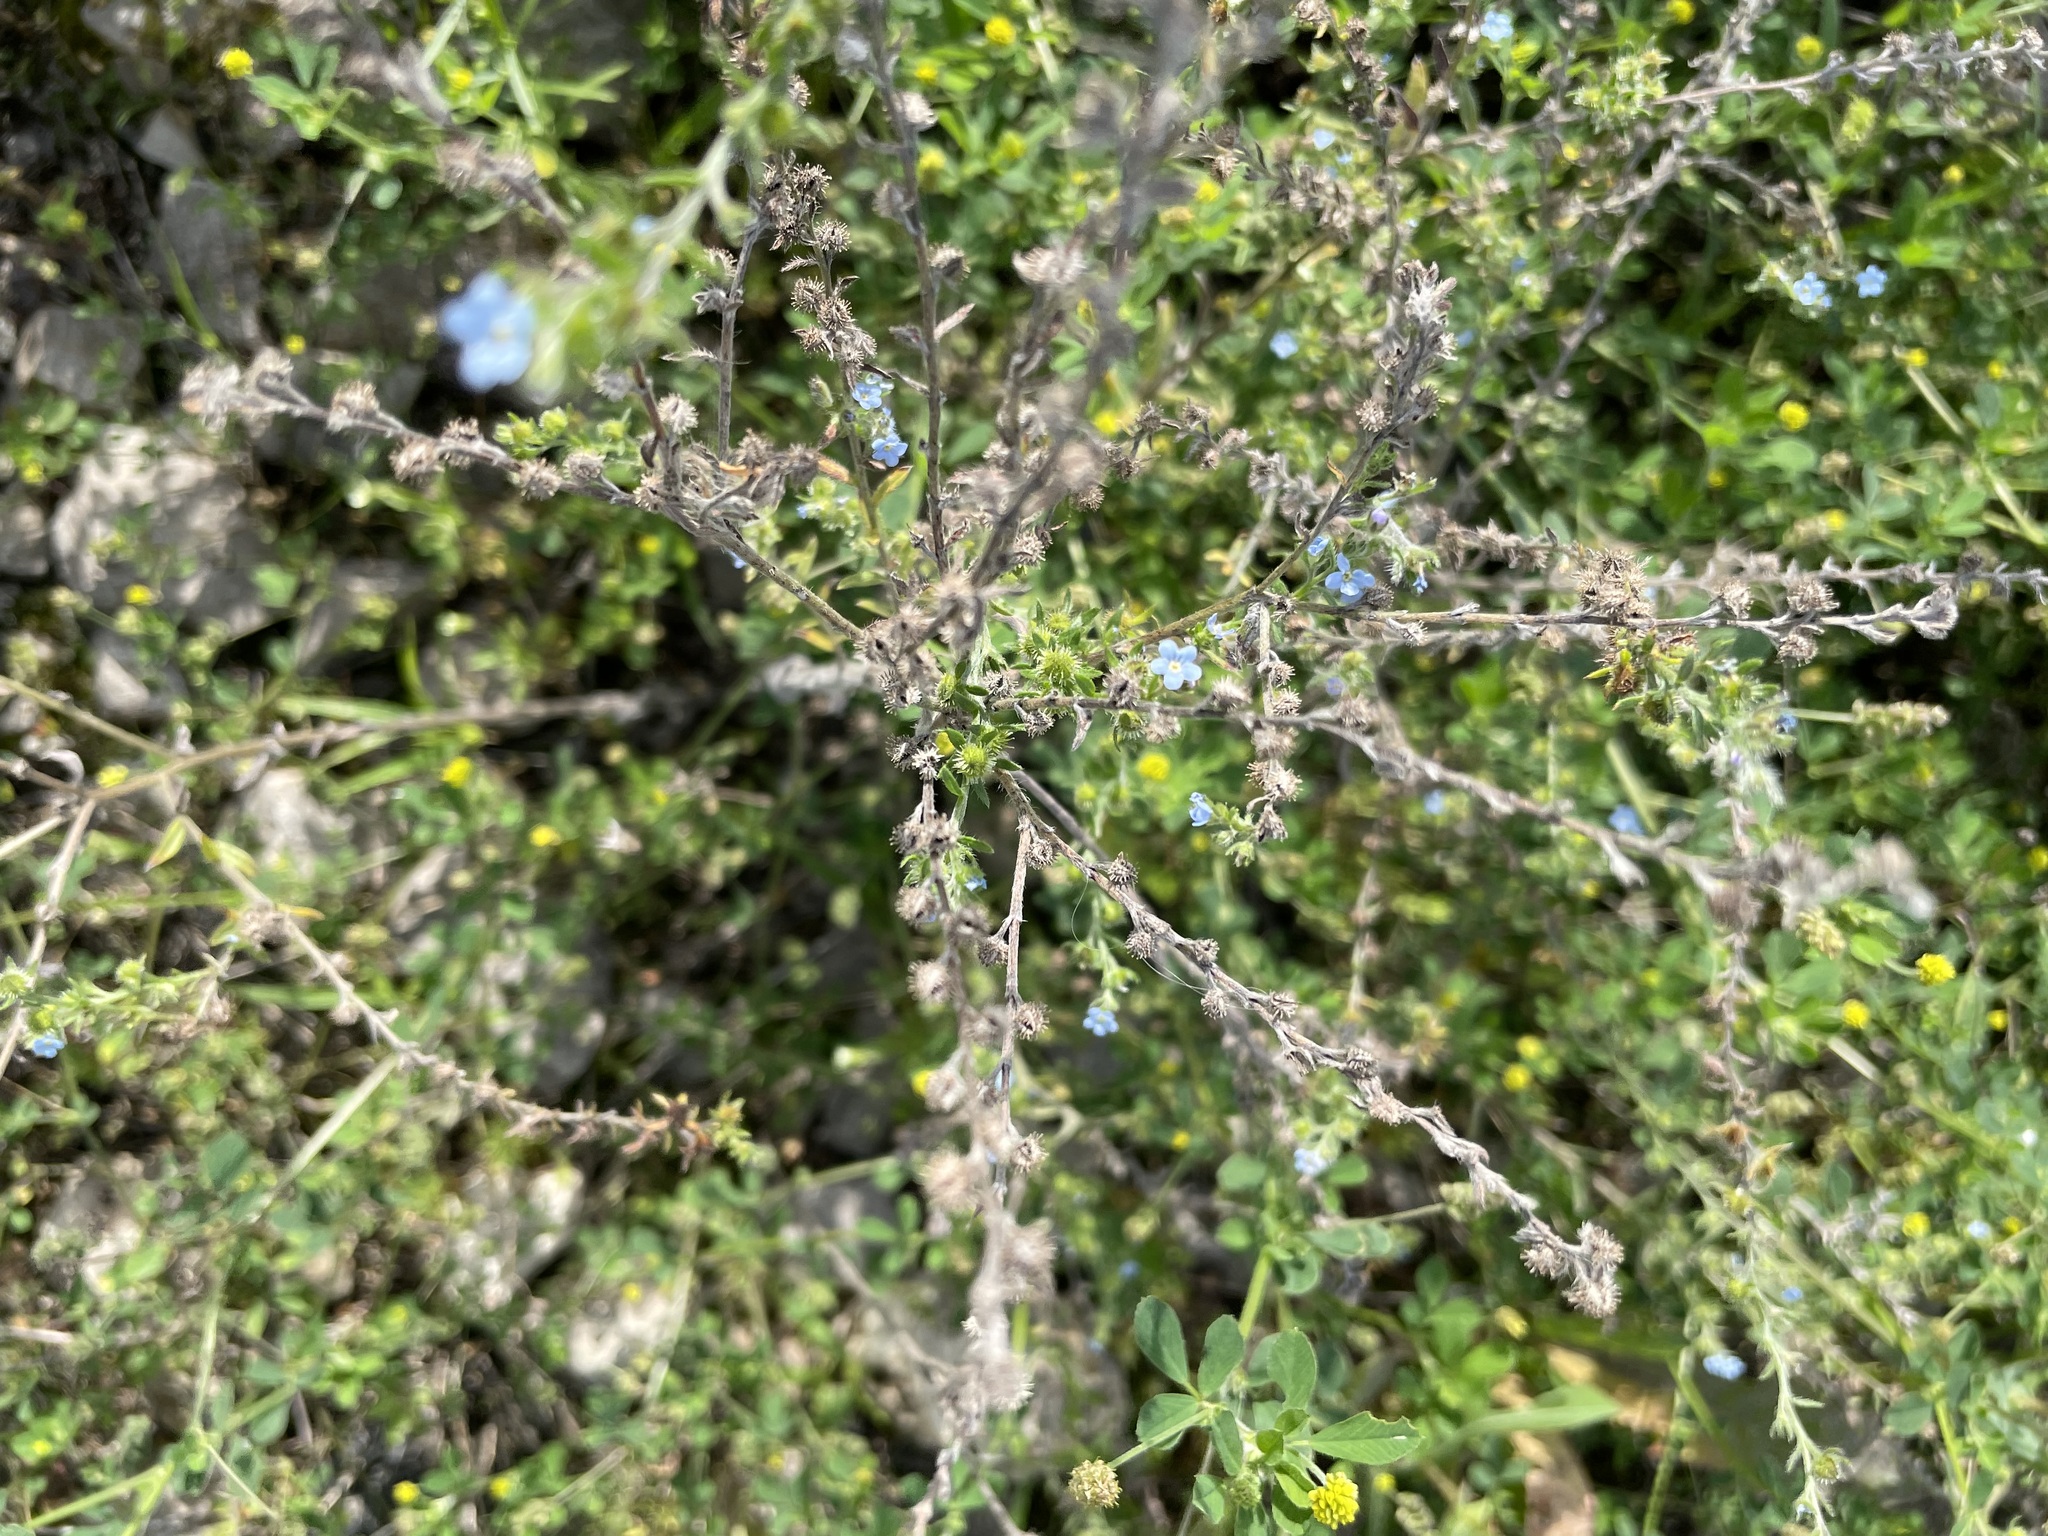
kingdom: Plantae
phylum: Tracheophyta
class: Magnoliopsida
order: Boraginales
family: Boraginaceae
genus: Lappula
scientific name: Lappula squarrosa
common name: European stickseed
